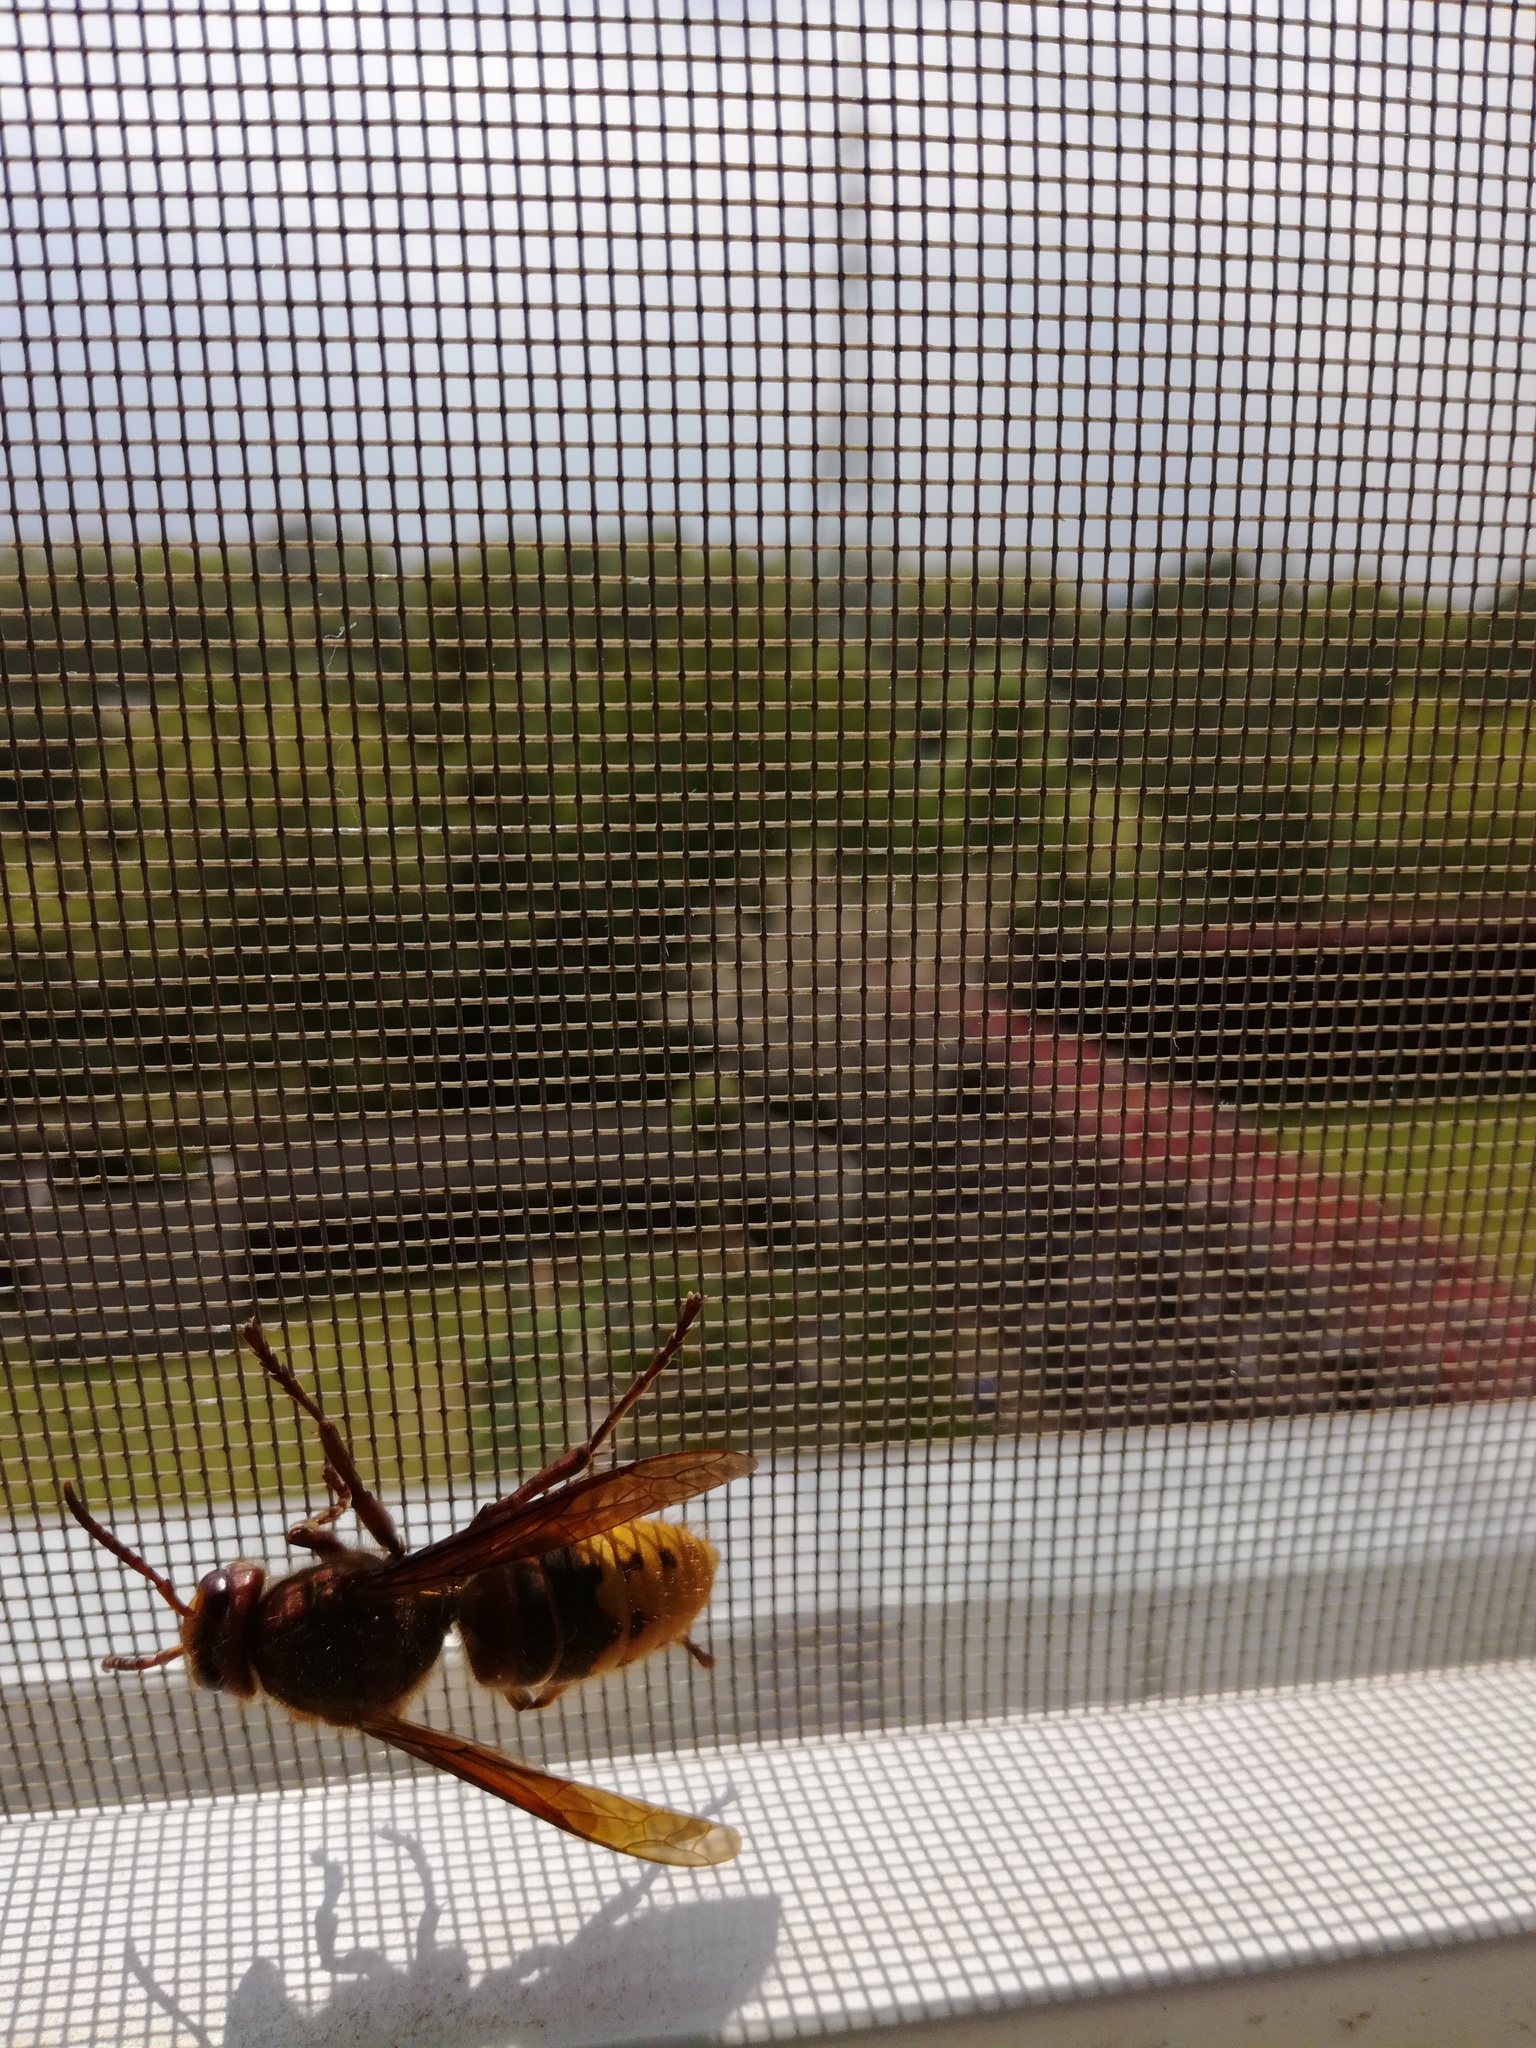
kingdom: Animalia
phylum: Arthropoda
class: Insecta
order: Hymenoptera
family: Vespidae
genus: Vespa
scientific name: Vespa crabro
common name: Hornet
